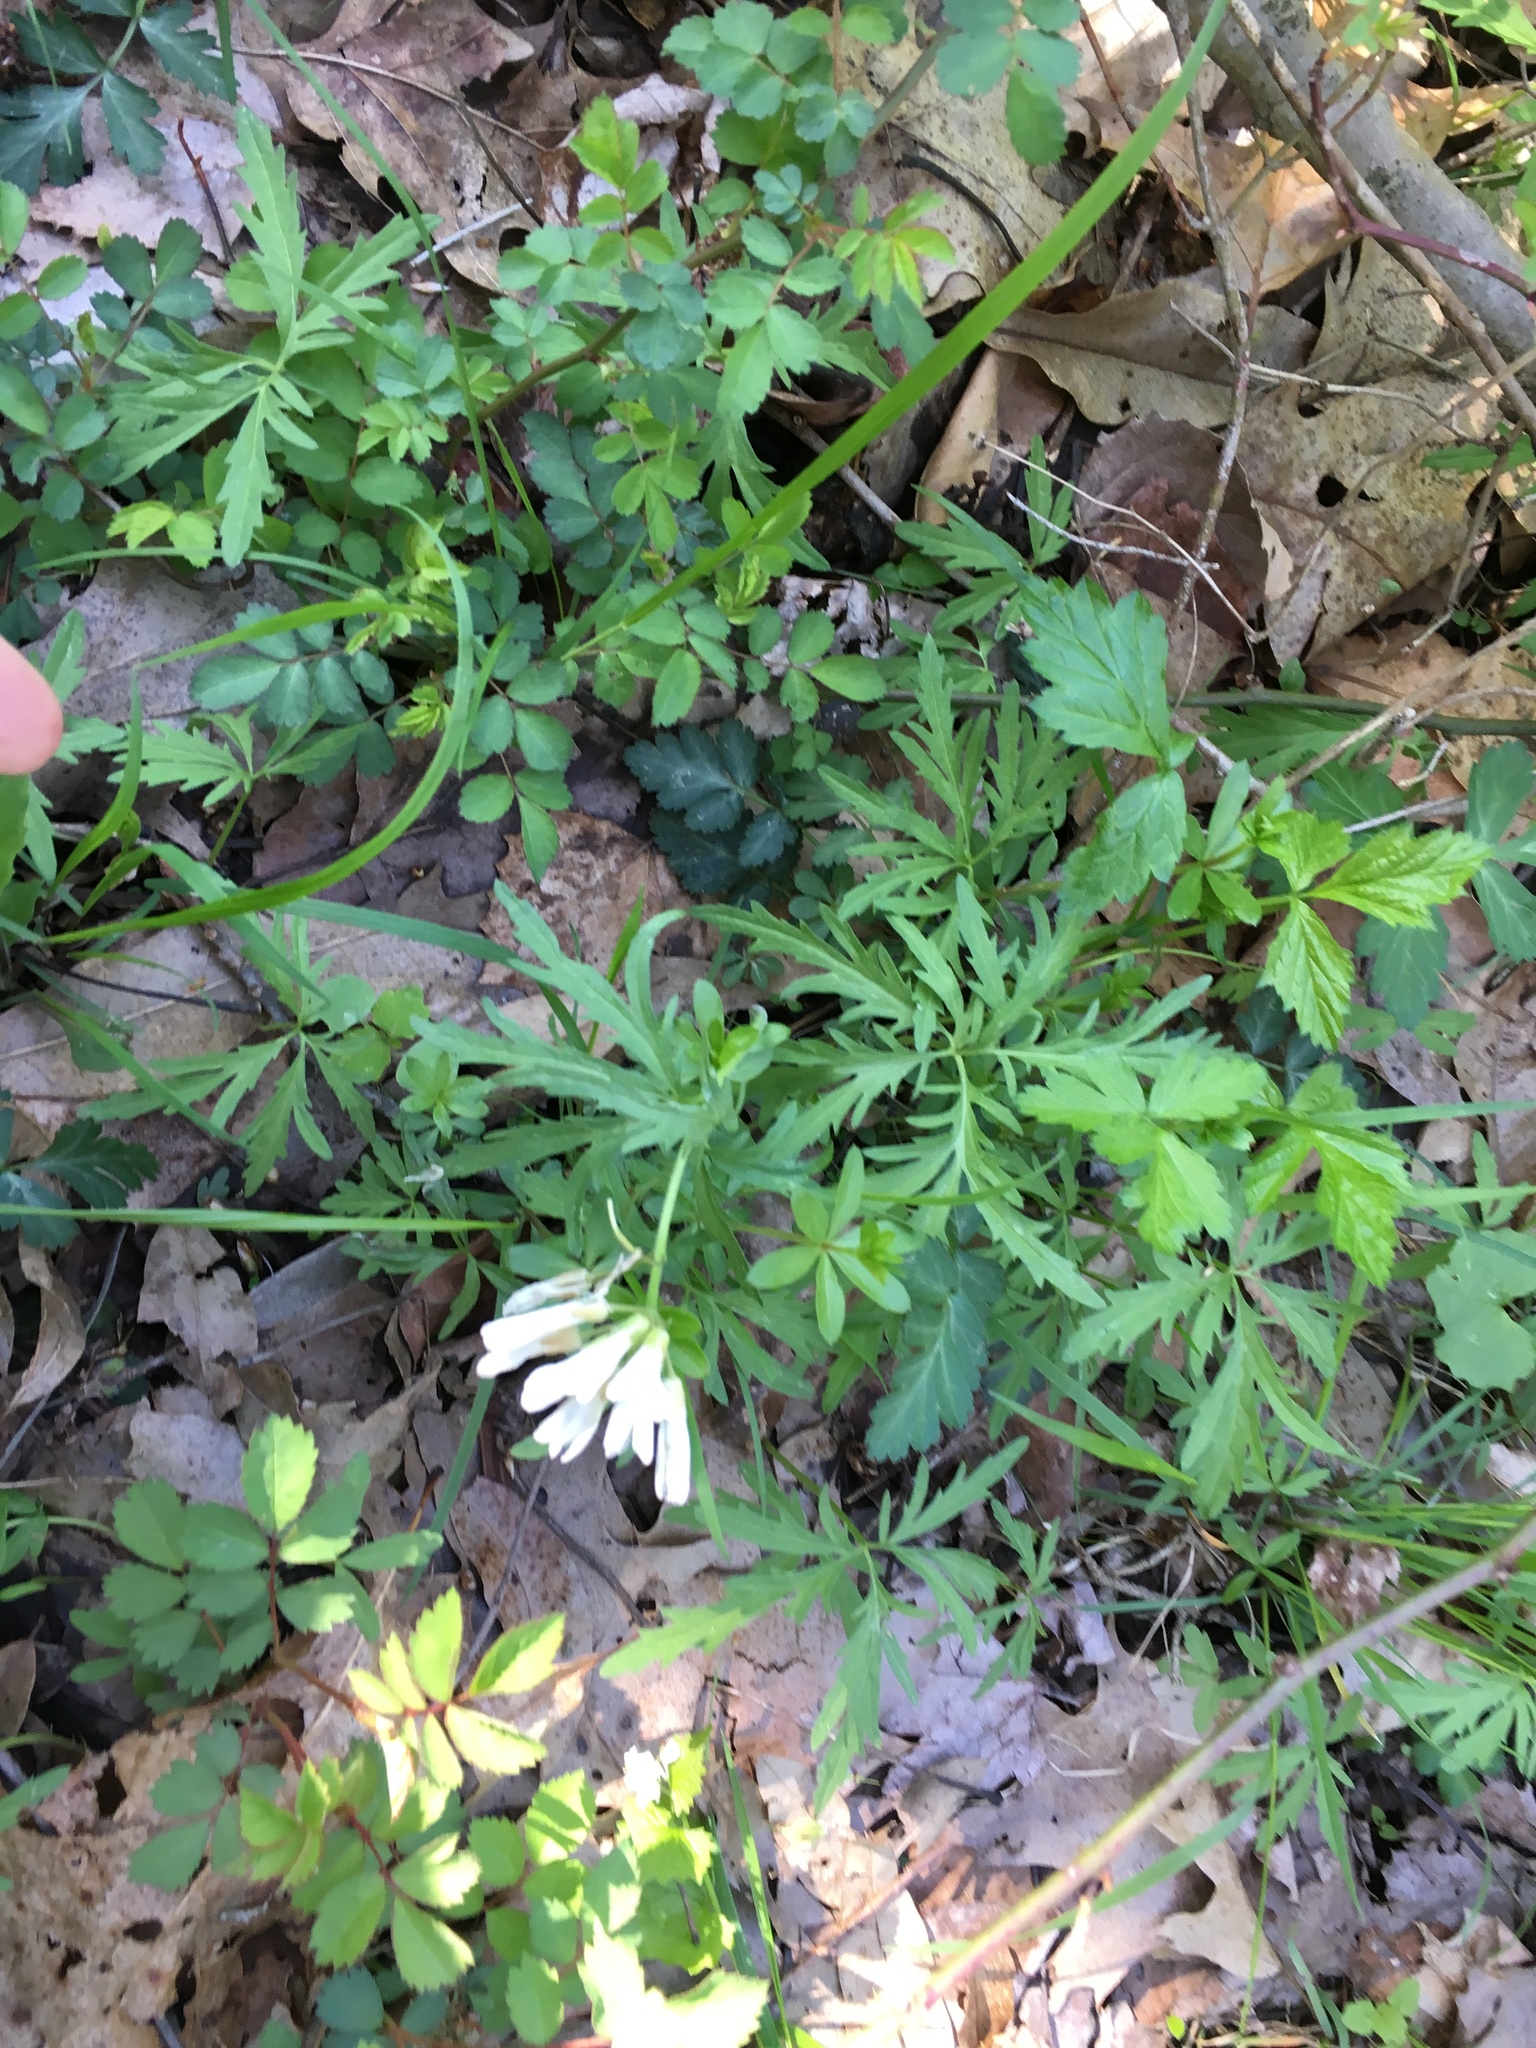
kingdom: Plantae
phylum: Tracheophyta
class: Magnoliopsida
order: Brassicales
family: Brassicaceae
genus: Cardamine
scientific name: Cardamine concatenata
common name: Cut-leaf toothcup
